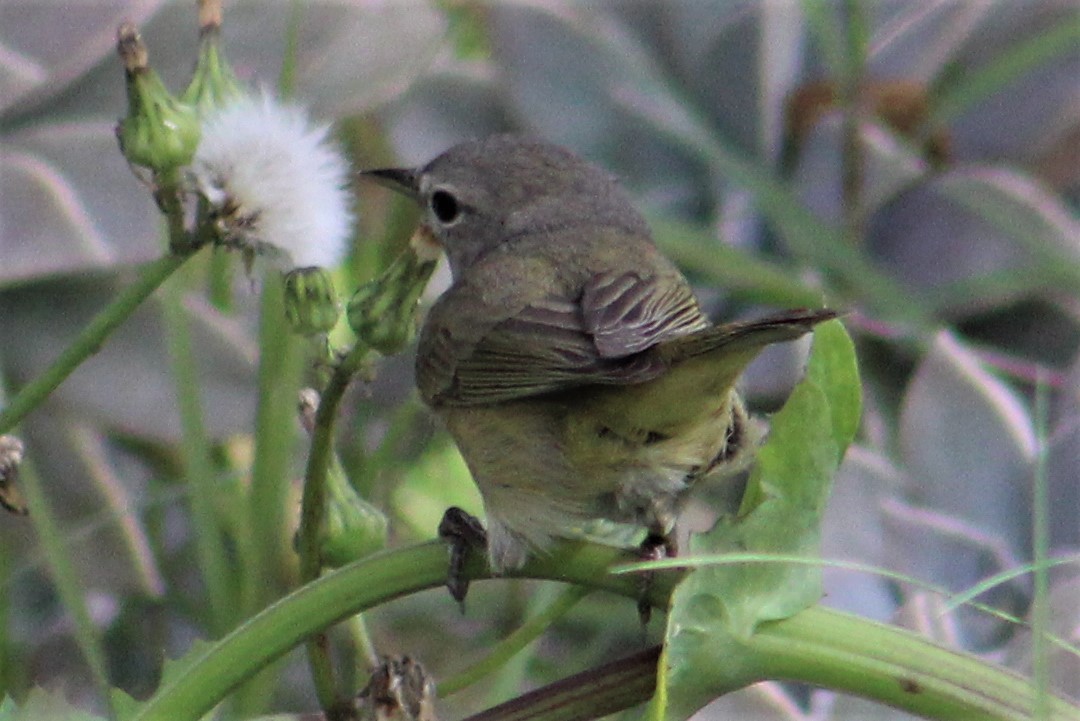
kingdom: Animalia
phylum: Chordata
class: Aves
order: Passeriformes
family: Parulidae
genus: Leiothlypis
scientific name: Leiothlypis celata
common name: Orange-crowned warbler
